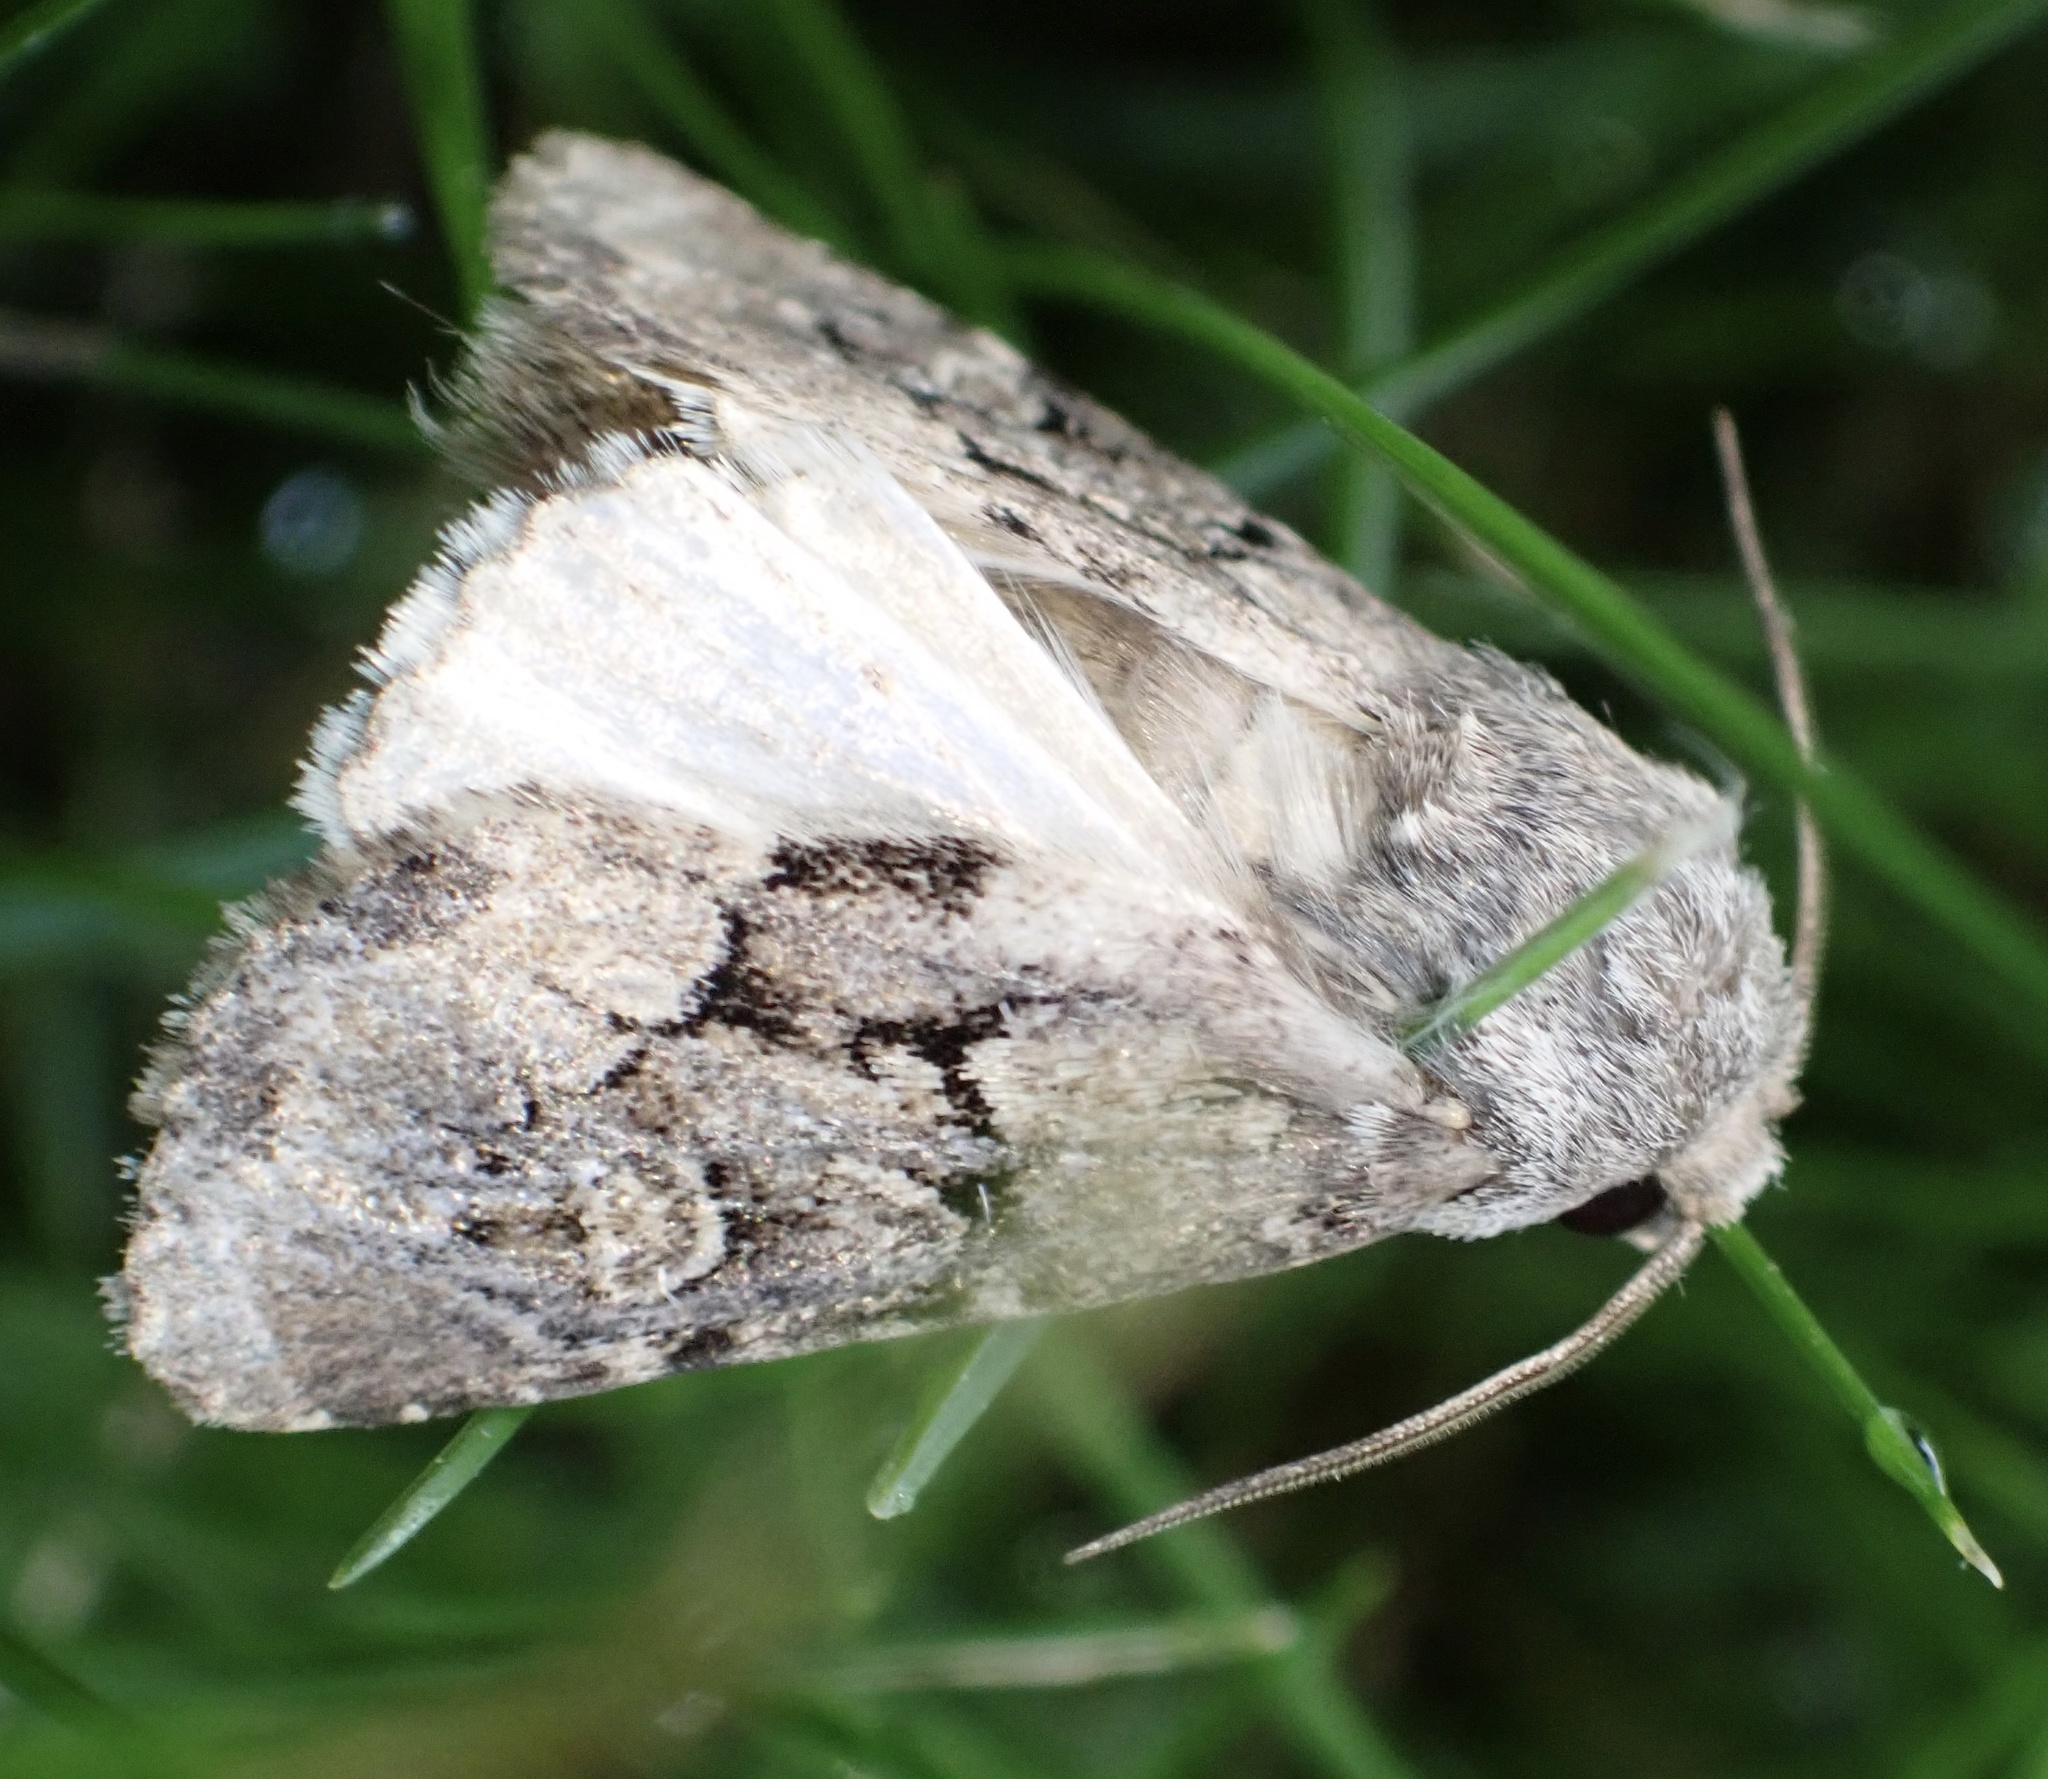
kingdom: Animalia
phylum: Arthropoda
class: Insecta
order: Lepidoptera
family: Noctuidae
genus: Luperina
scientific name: Luperina testacea
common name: Flounced rustic
